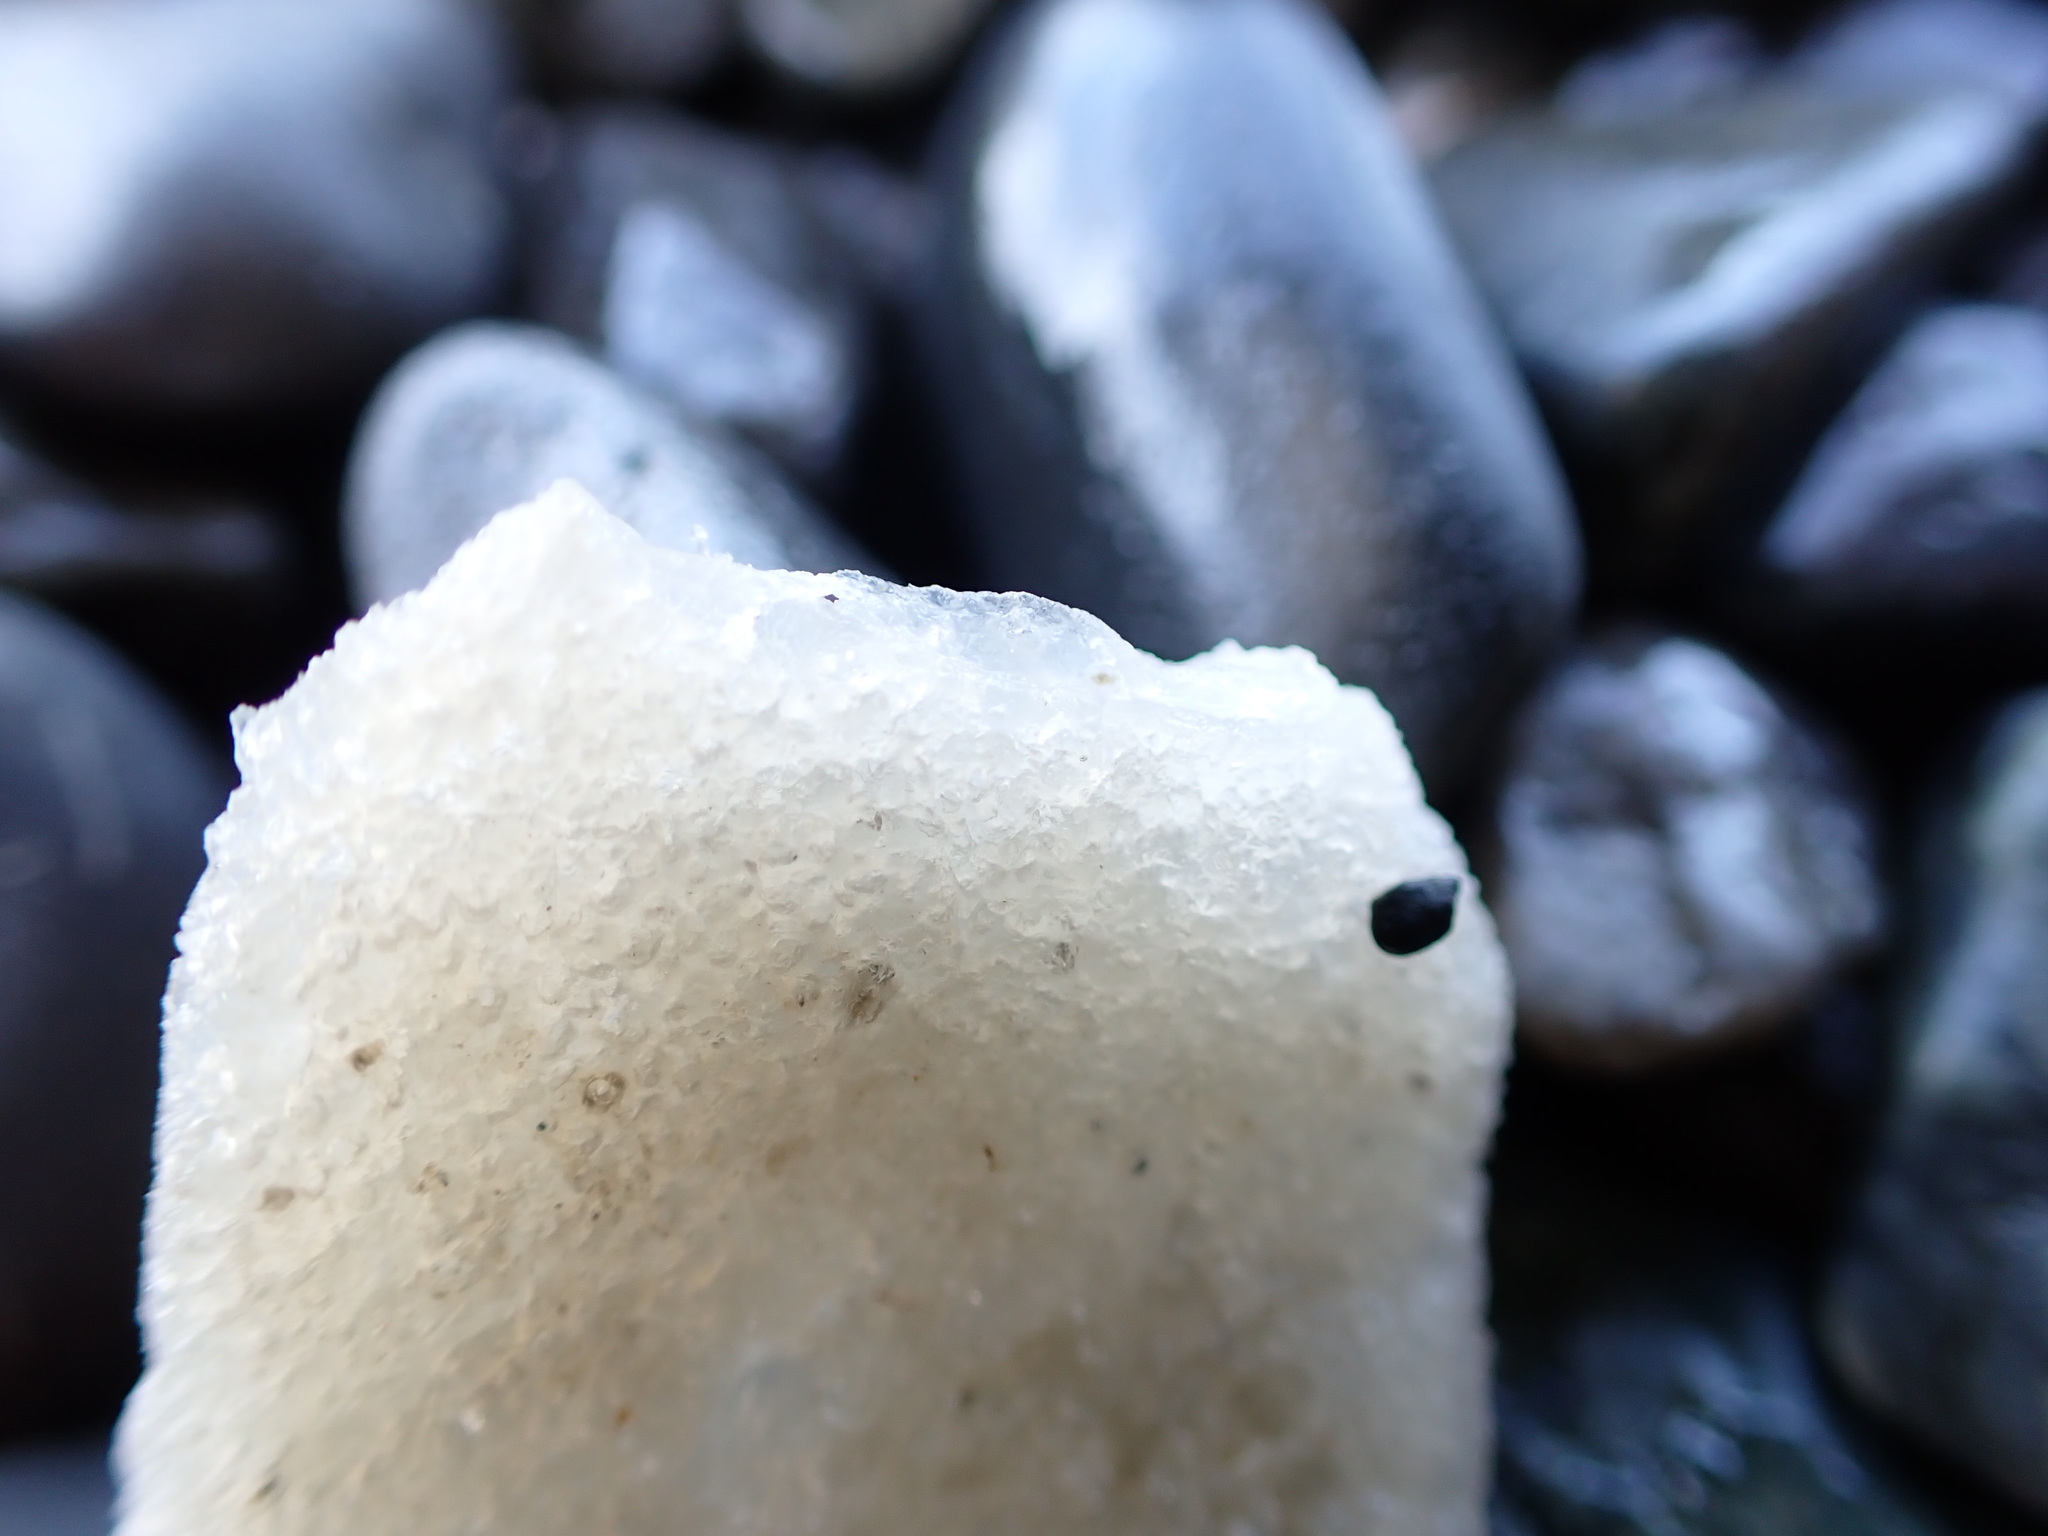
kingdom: Animalia
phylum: Chordata
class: Thaliacea
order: Pyrosomatida
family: Pyrosomatidae
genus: Pyrosoma
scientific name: Pyrosoma atlanticum
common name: Atlantic pyrosomes
